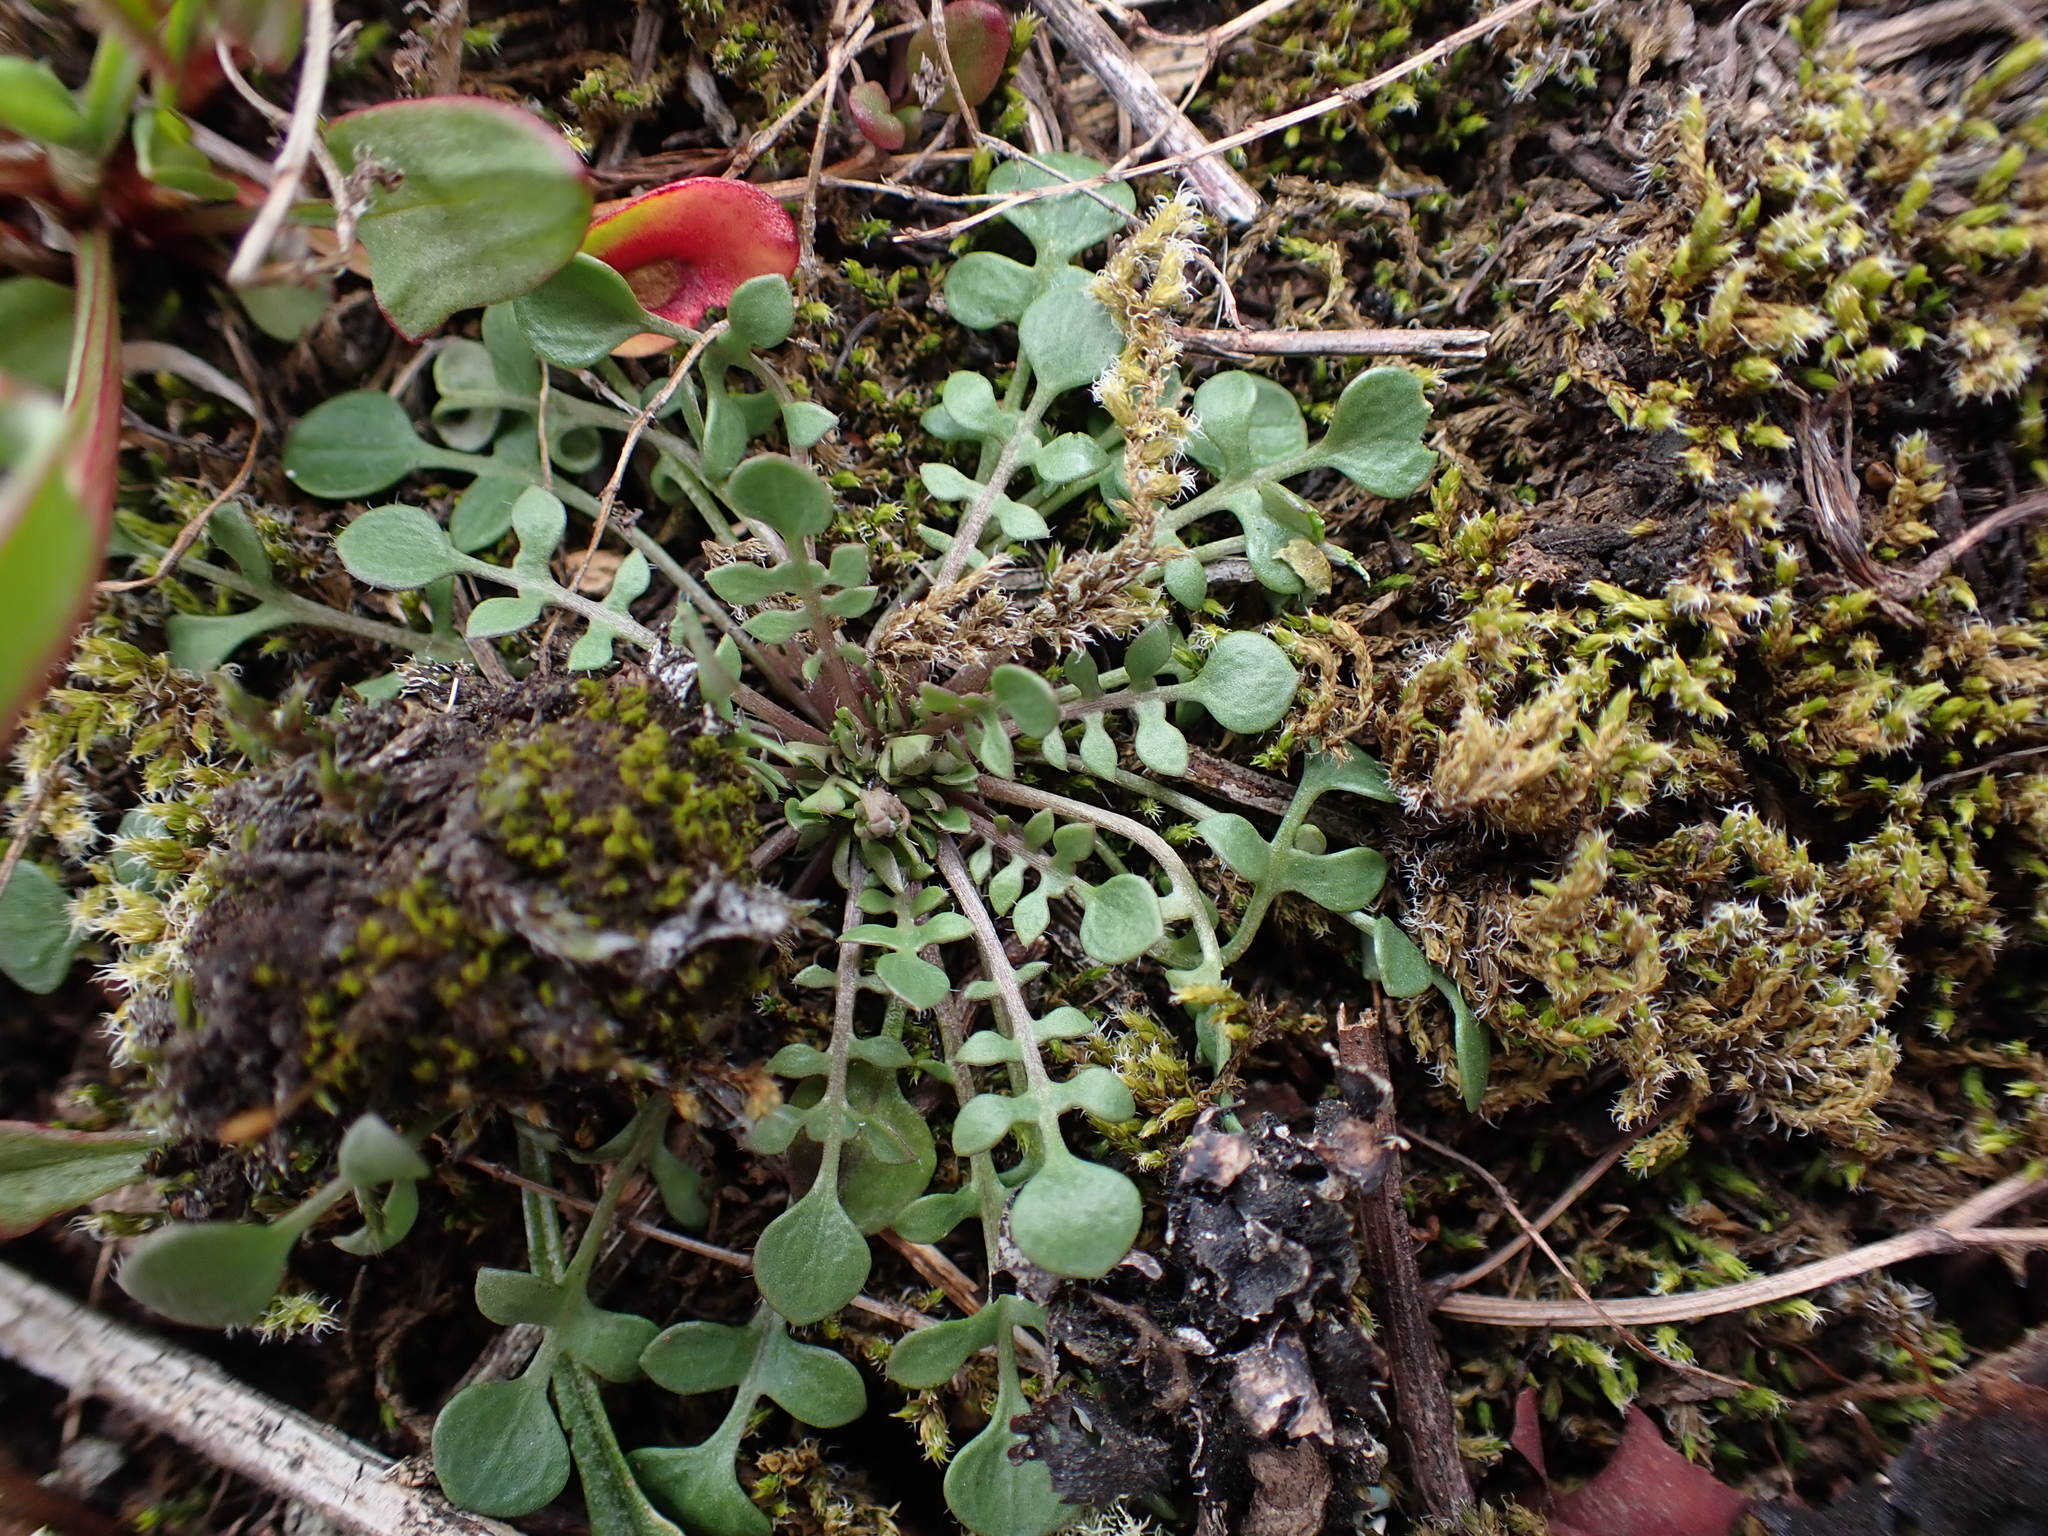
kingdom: Plantae
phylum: Tracheophyta
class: Magnoliopsida
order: Brassicales
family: Brassicaceae
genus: Teesdalia
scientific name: Teesdalia nudicaulis
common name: Shepherd's cress
